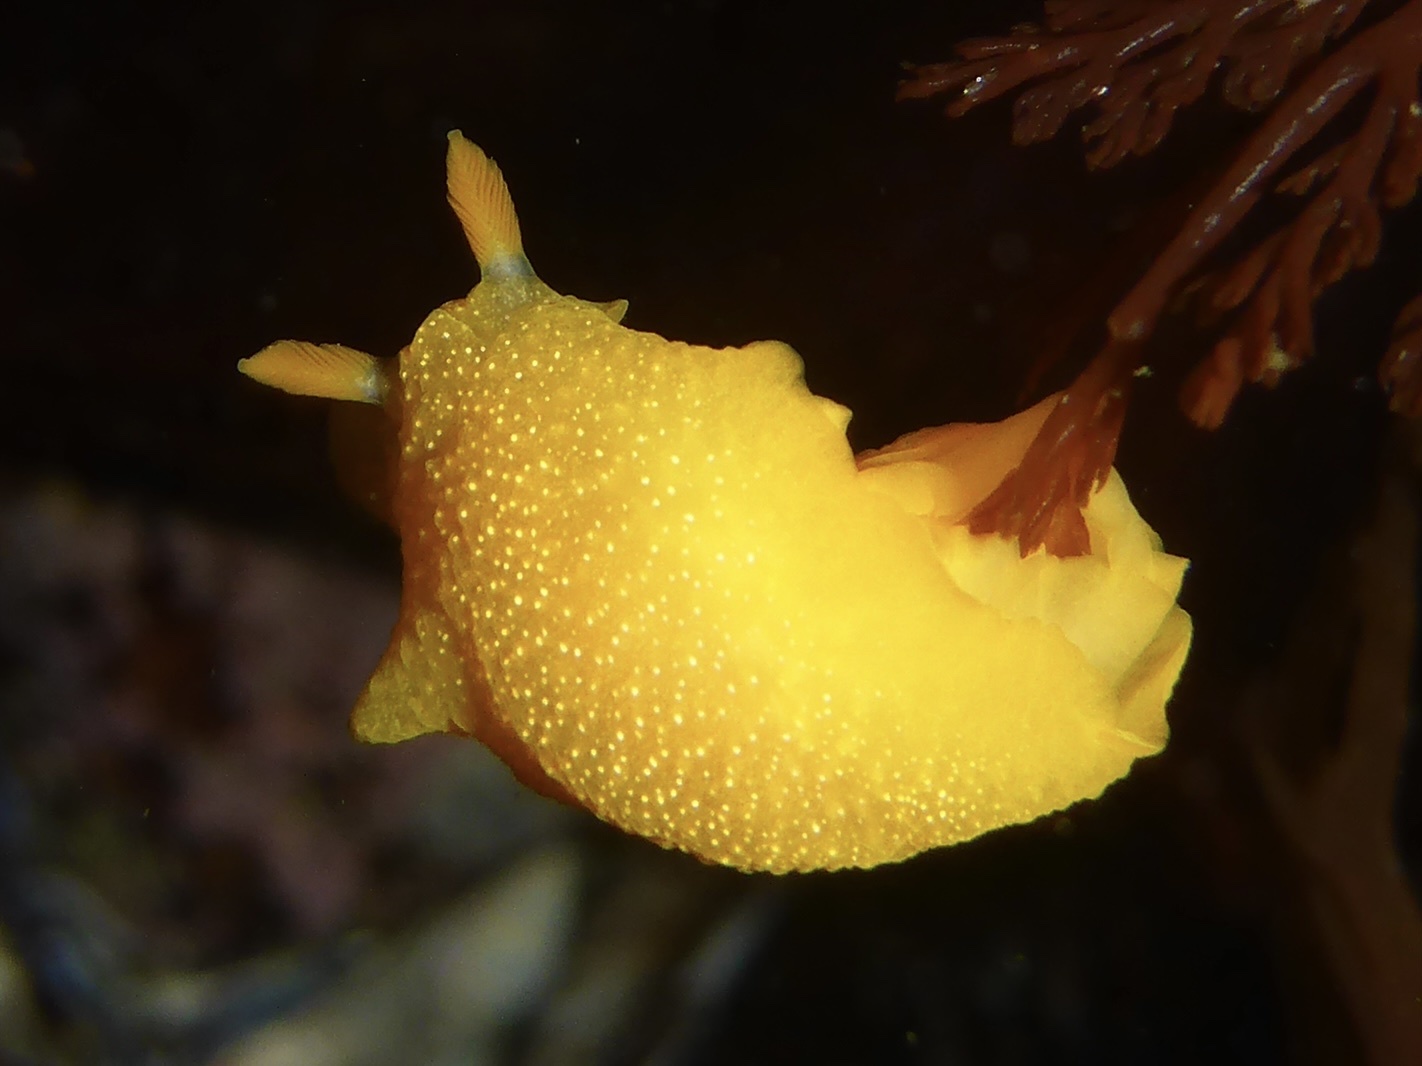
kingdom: Animalia
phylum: Mollusca
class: Gastropoda
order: Nudibranchia
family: Dendrodorididae
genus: Doriopsilla
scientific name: Doriopsilla albopunctata
